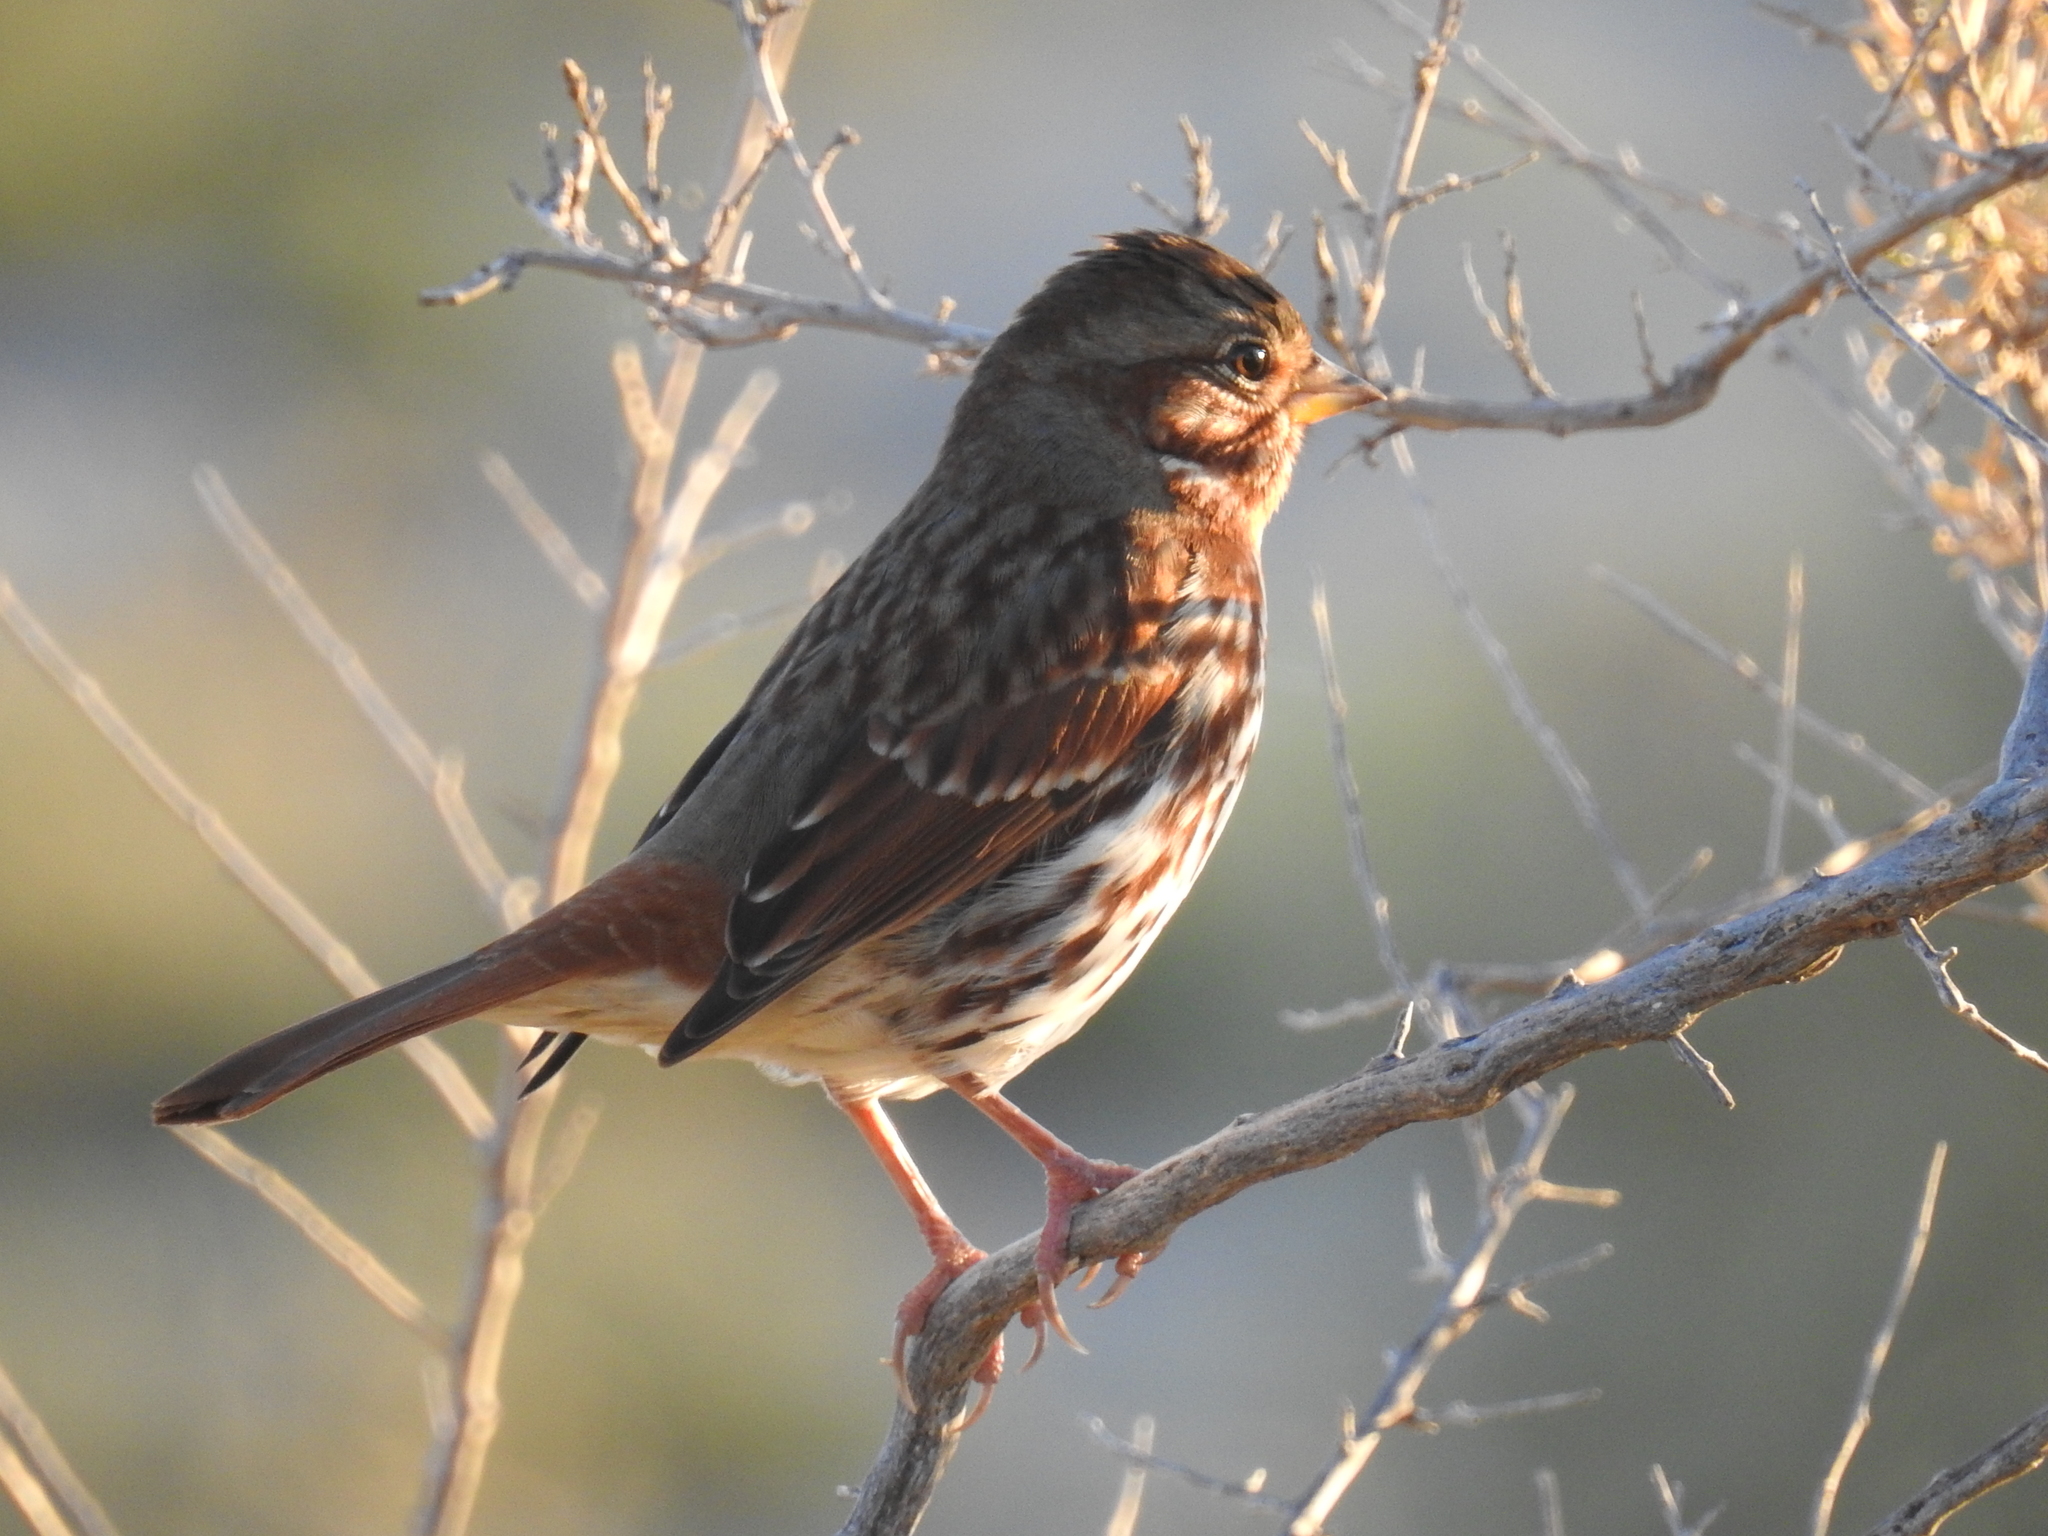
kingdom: Animalia
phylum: Chordata
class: Aves
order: Passeriformes
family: Passerellidae
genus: Passerella
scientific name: Passerella iliaca
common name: Fox sparrow
